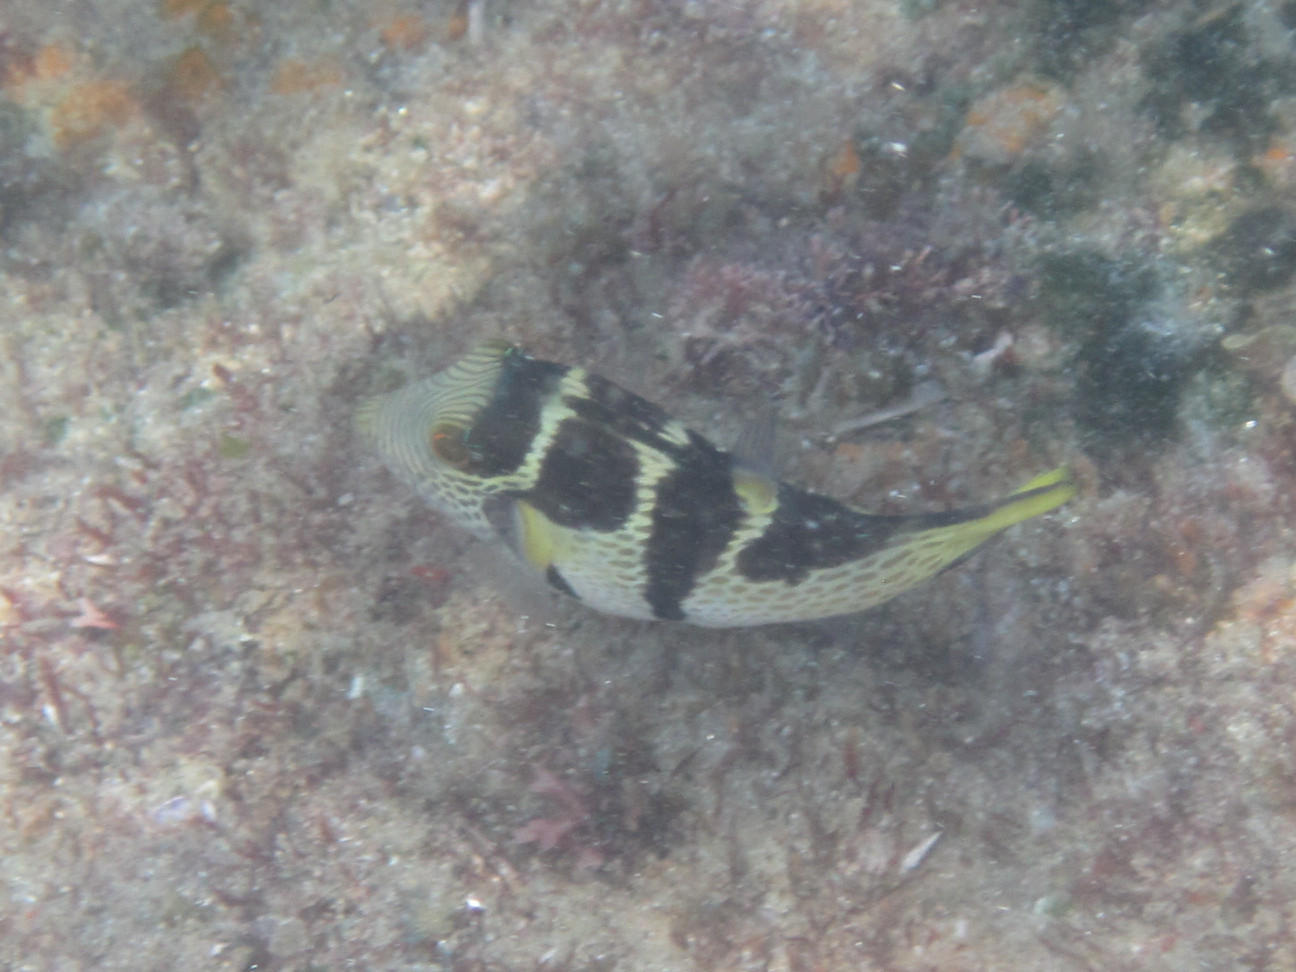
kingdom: Animalia
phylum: Chordata
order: Tetraodontiformes
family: Tetraodontidae
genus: Canthigaster
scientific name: Canthigaster valentini
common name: Banded toby
